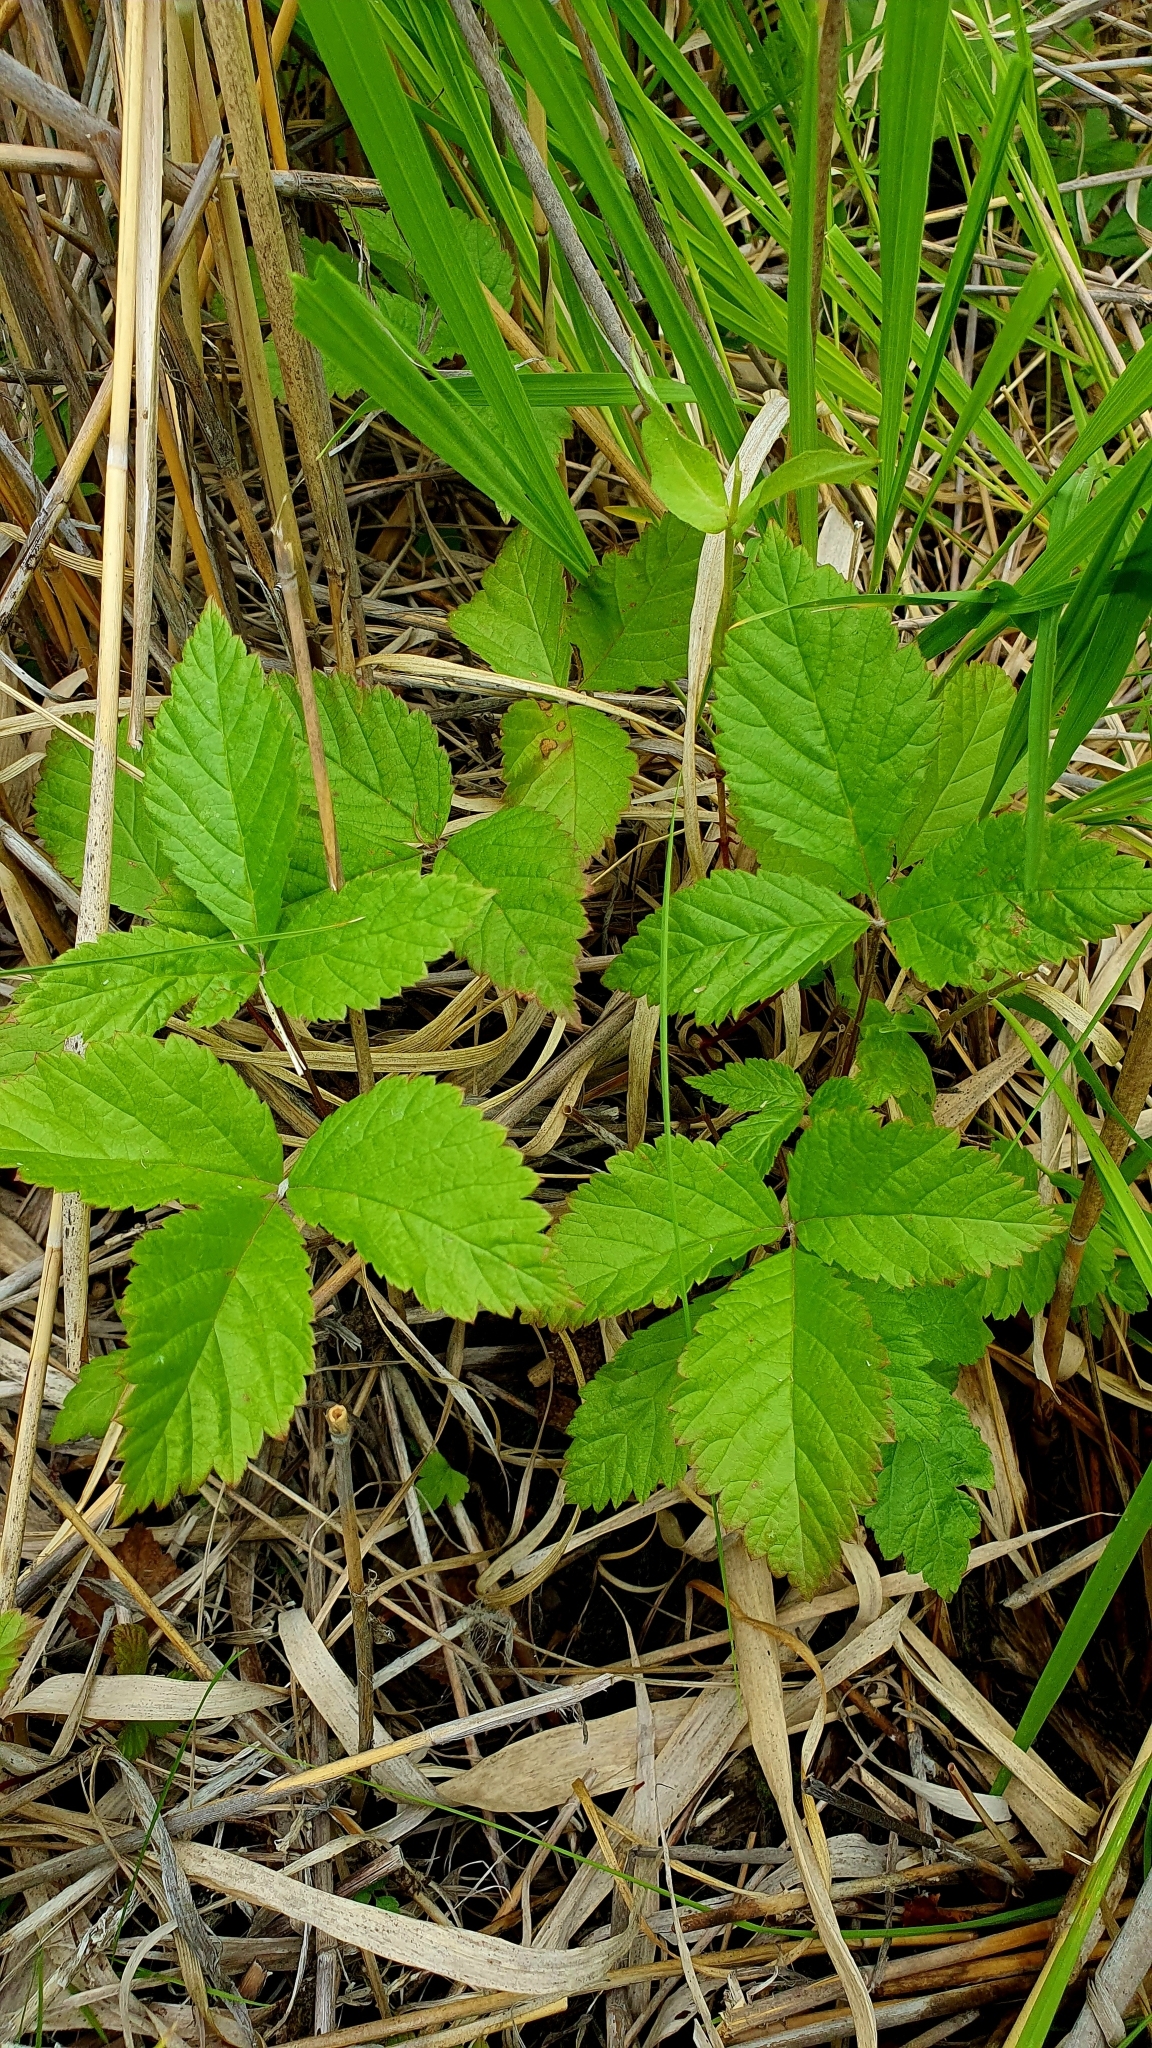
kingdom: Plantae
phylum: Tracheophyta
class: Magnoliopsida
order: Rosales
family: Rosaceae
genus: Rubus
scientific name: Rubus saxatilis
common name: Stone bramble
